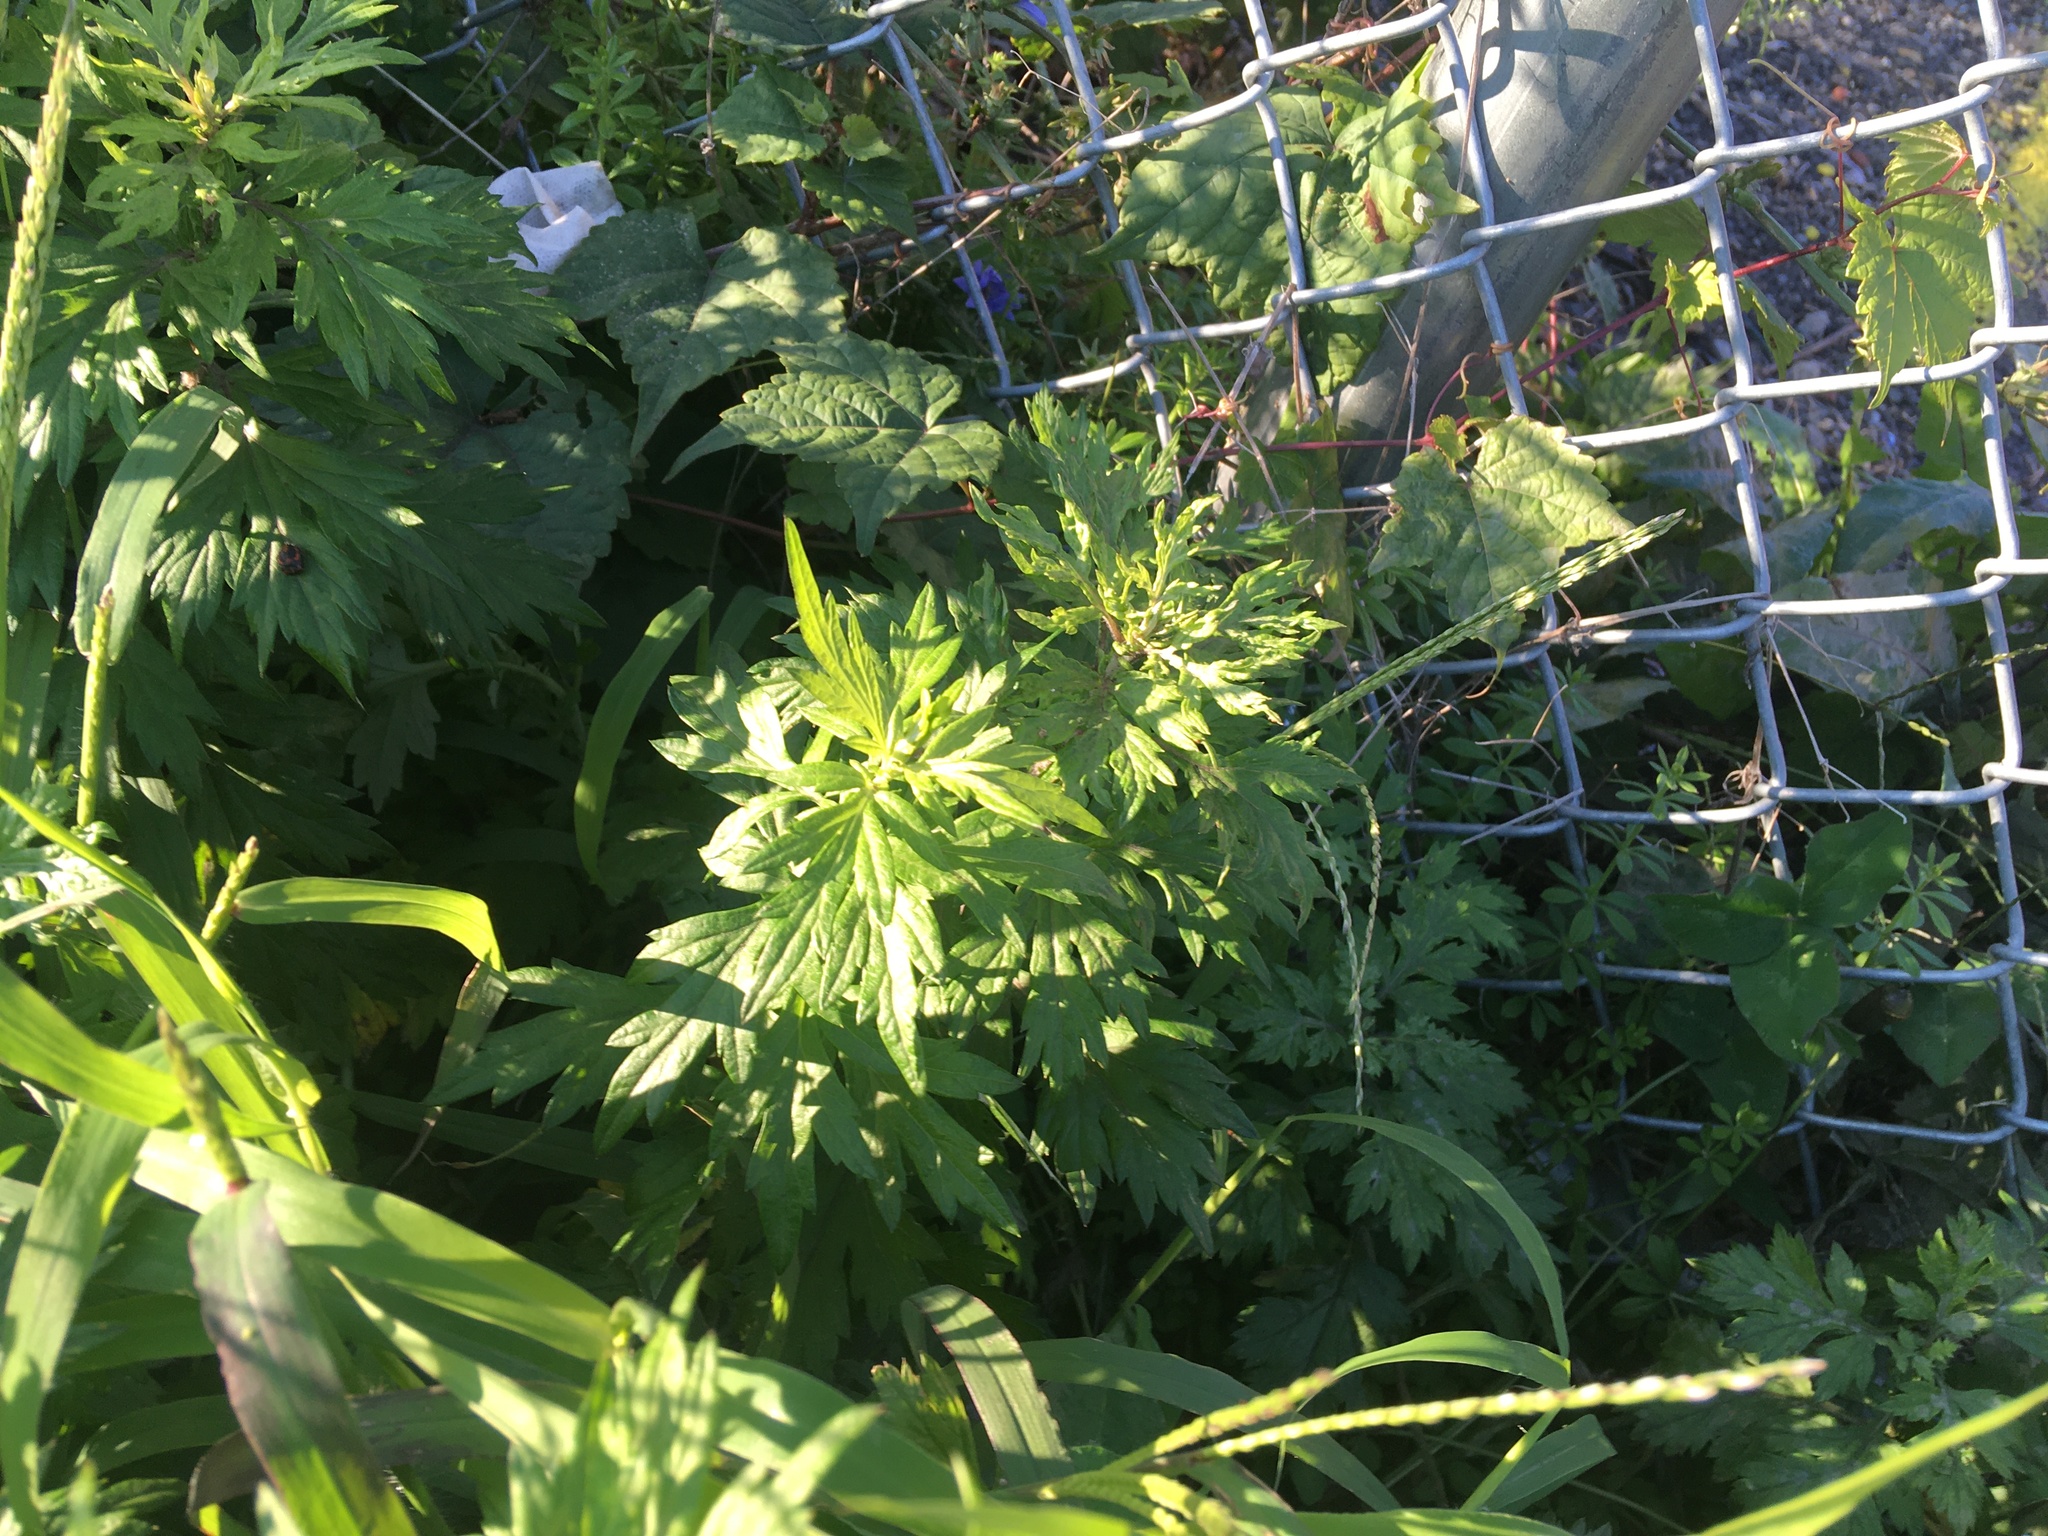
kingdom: Plantae
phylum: Tracheophyta
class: Magnoliopsida
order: Asterales
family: Asteraceae
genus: Artemisia
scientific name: Artemisia vulgaris
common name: Mugwort
